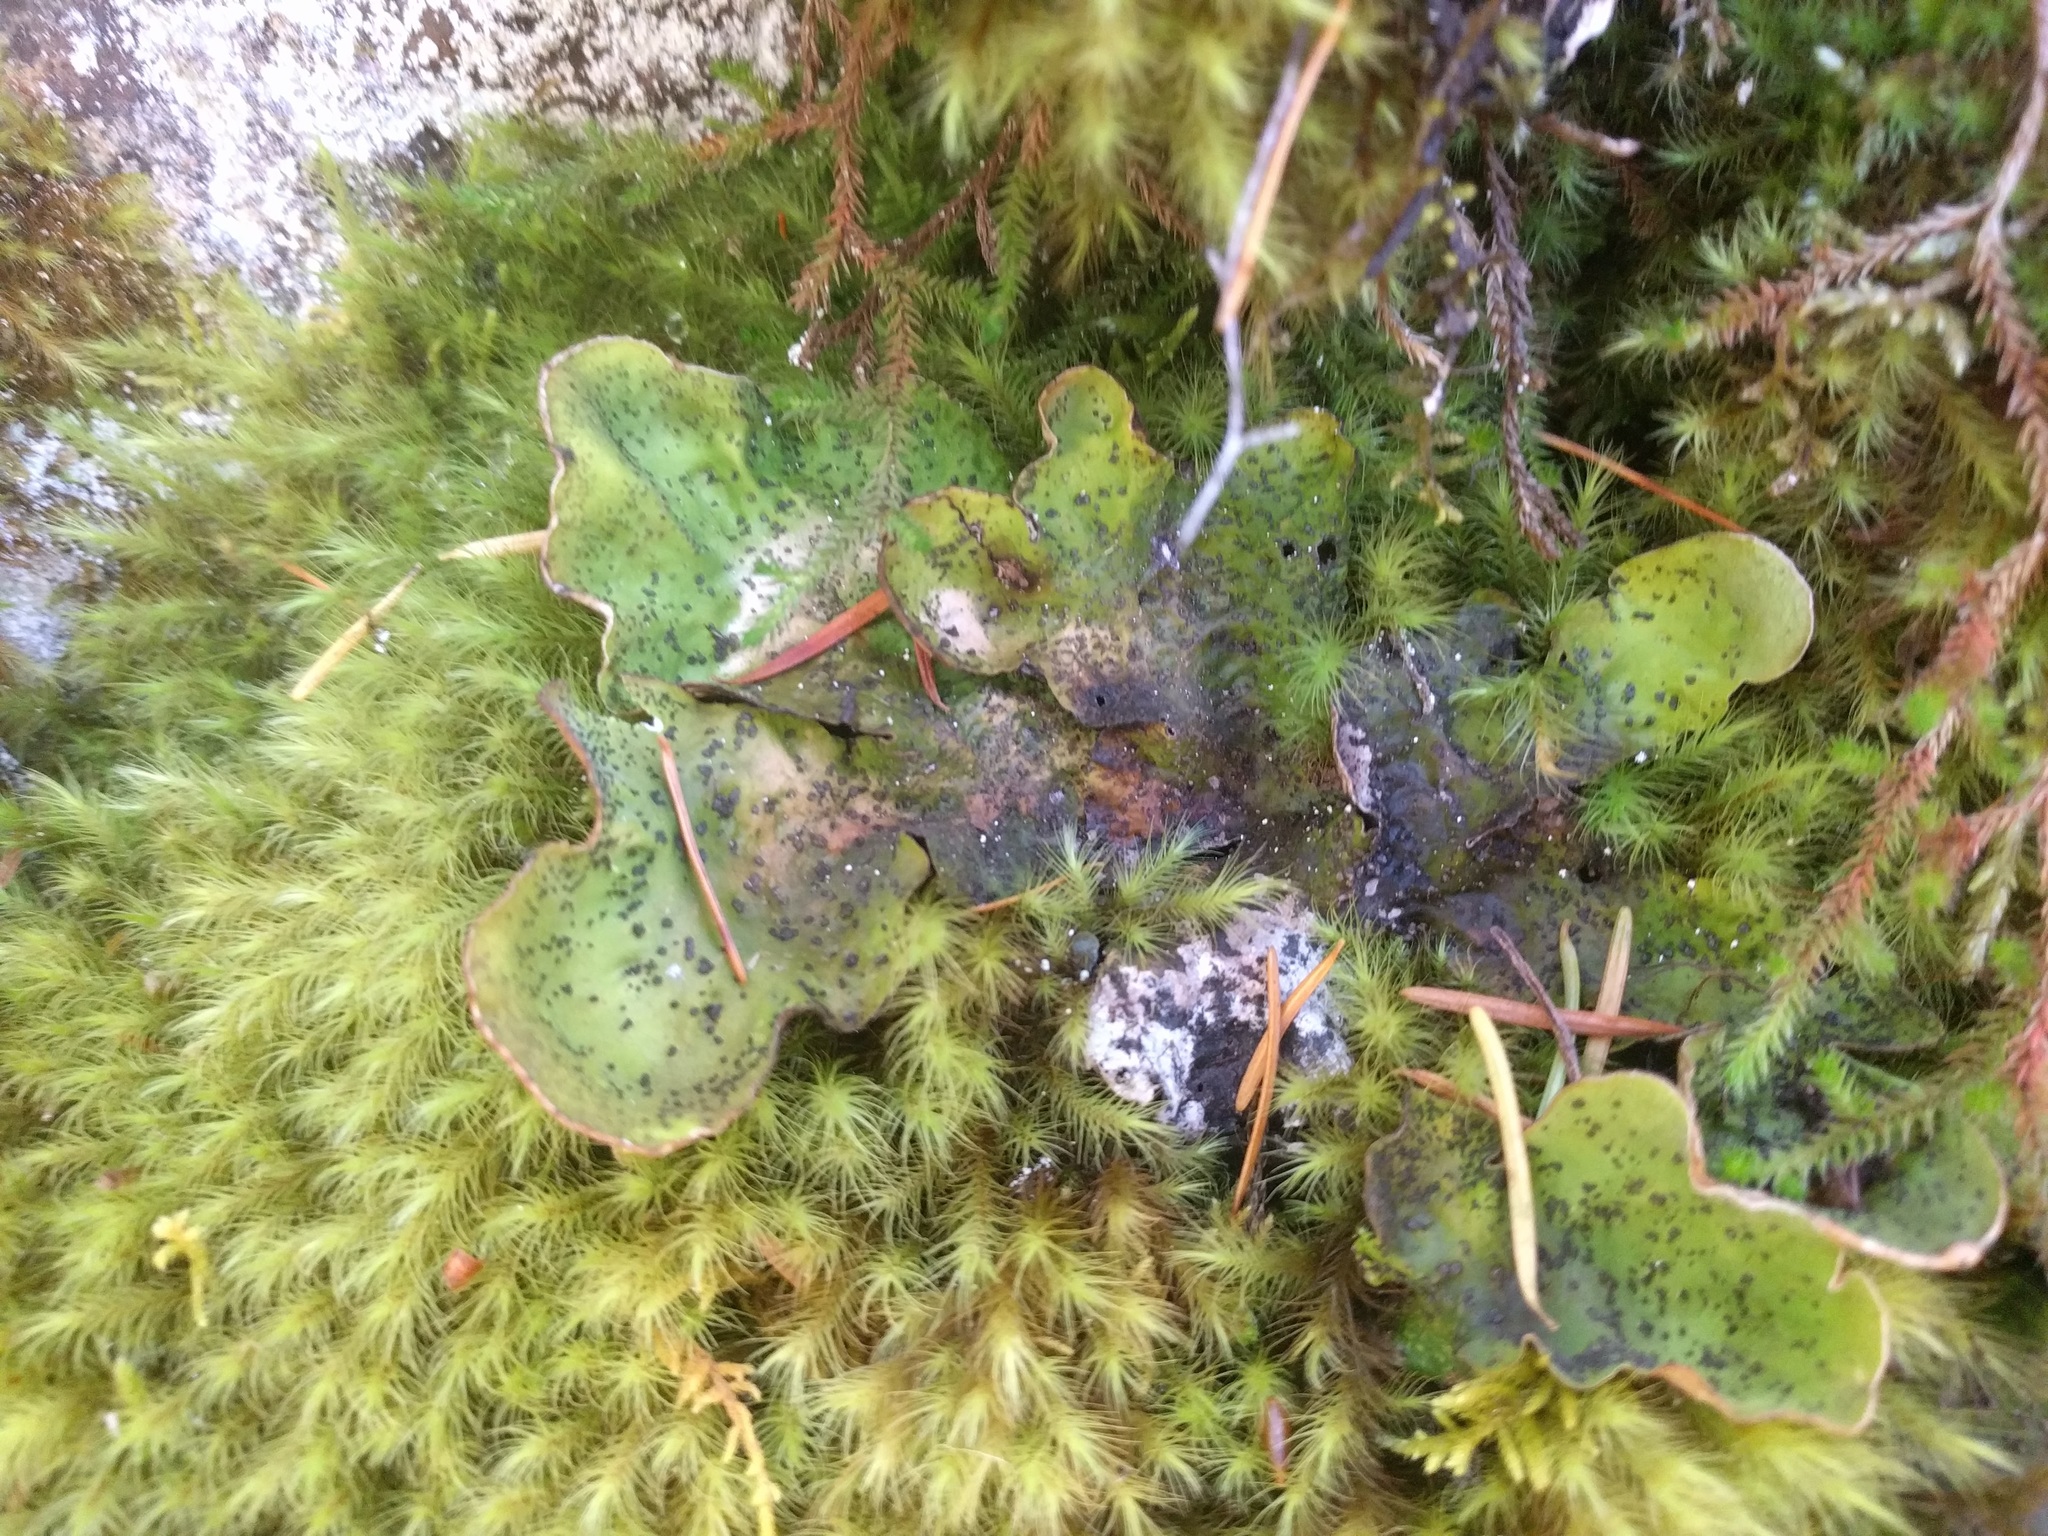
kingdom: Fungi
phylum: Ascomycota
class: Lecanoromycetes
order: Peltigerales
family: Peltigeraceae
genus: Peltigera
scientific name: Peltigera aphthosa
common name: Common freckle pelt lichen
